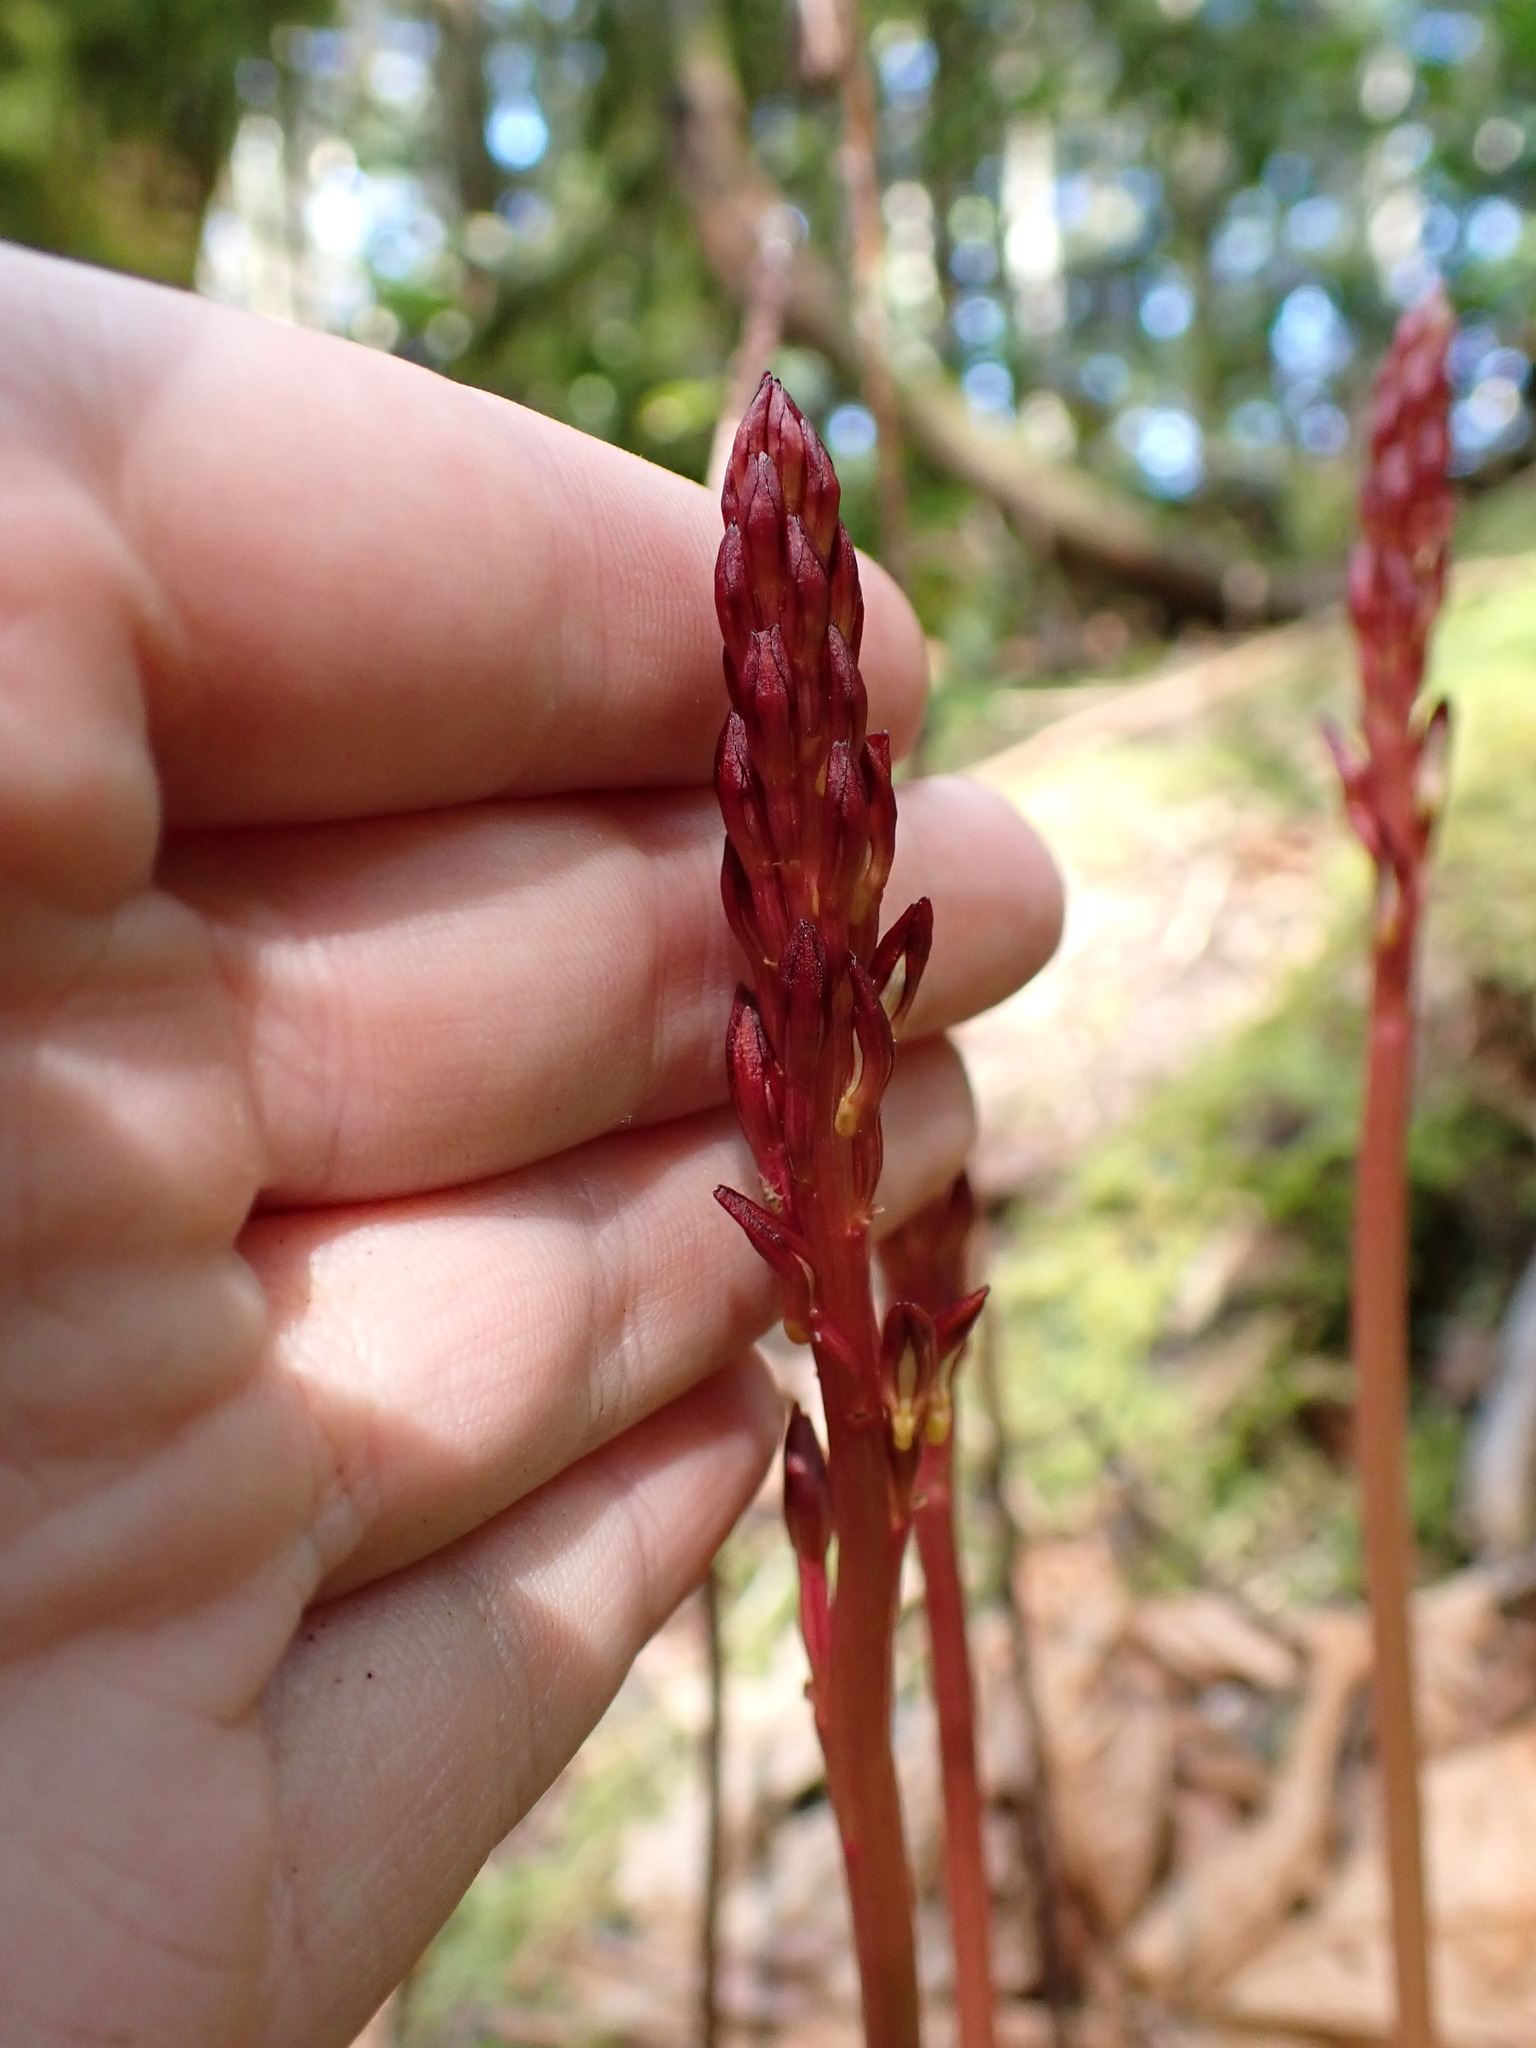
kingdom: Plantae
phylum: Tracheophyta
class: Liliopsida
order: Asparagales
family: Orchidaceae
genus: Corallorhiza
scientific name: Corallorhiza maculata
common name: Spotted coralroot
